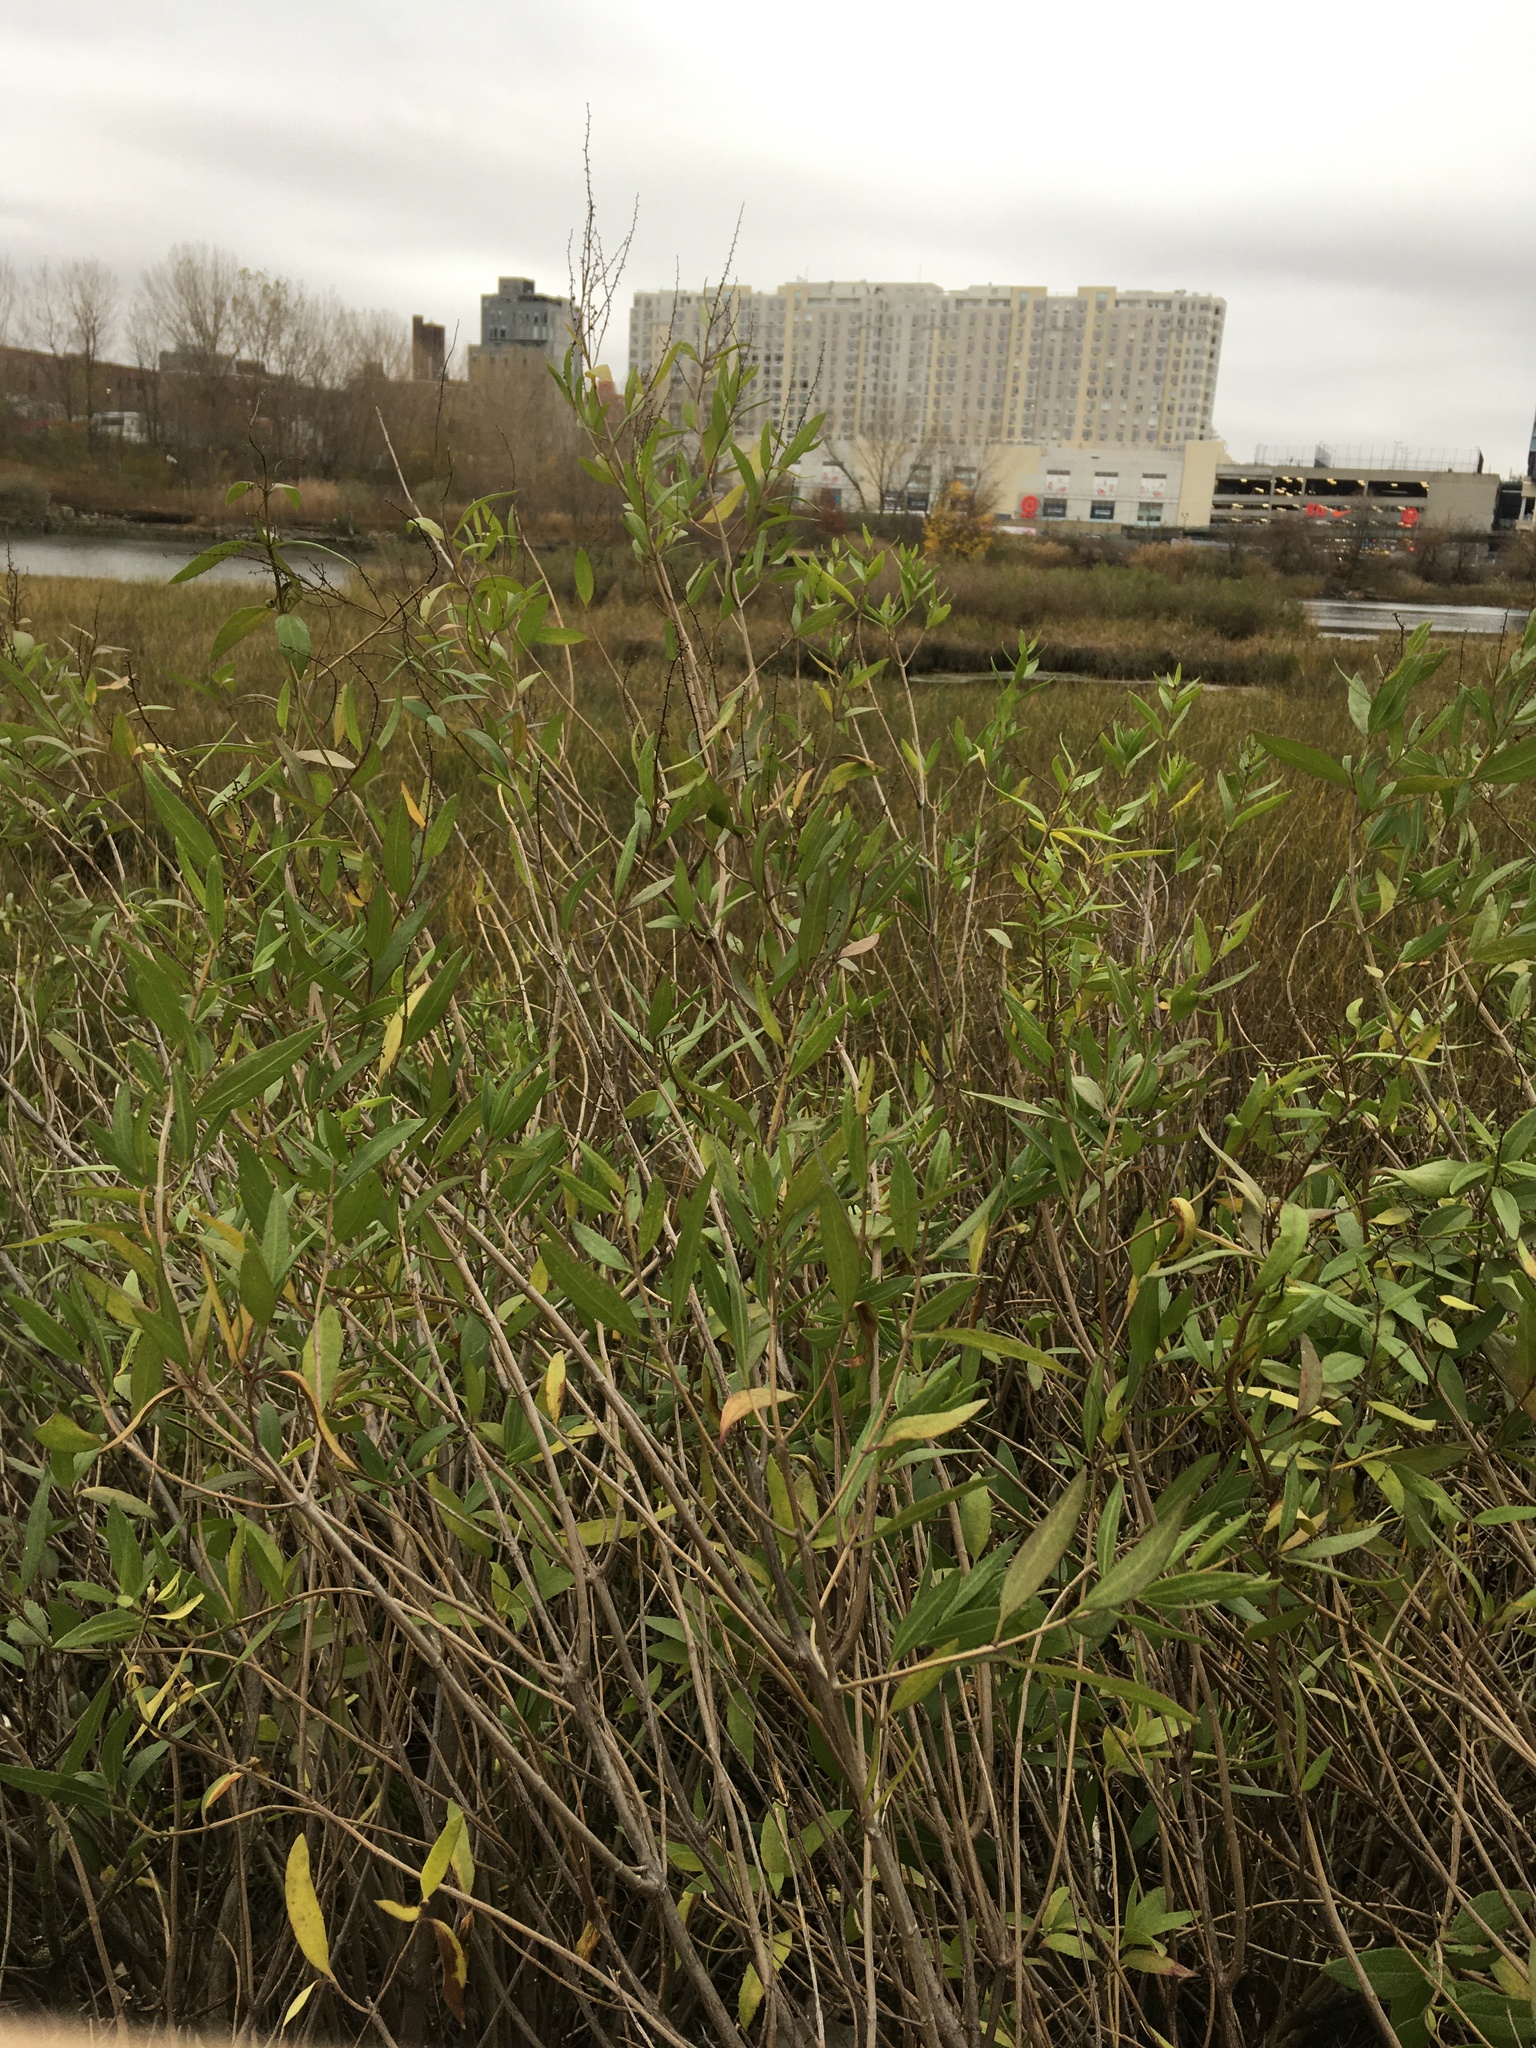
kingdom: Plantae
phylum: Tracheophyta
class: Magnoliopsida
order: Asterales
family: Asteraceae
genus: Iva
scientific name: Iva frutescens
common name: Big-leaved marsh-elder
